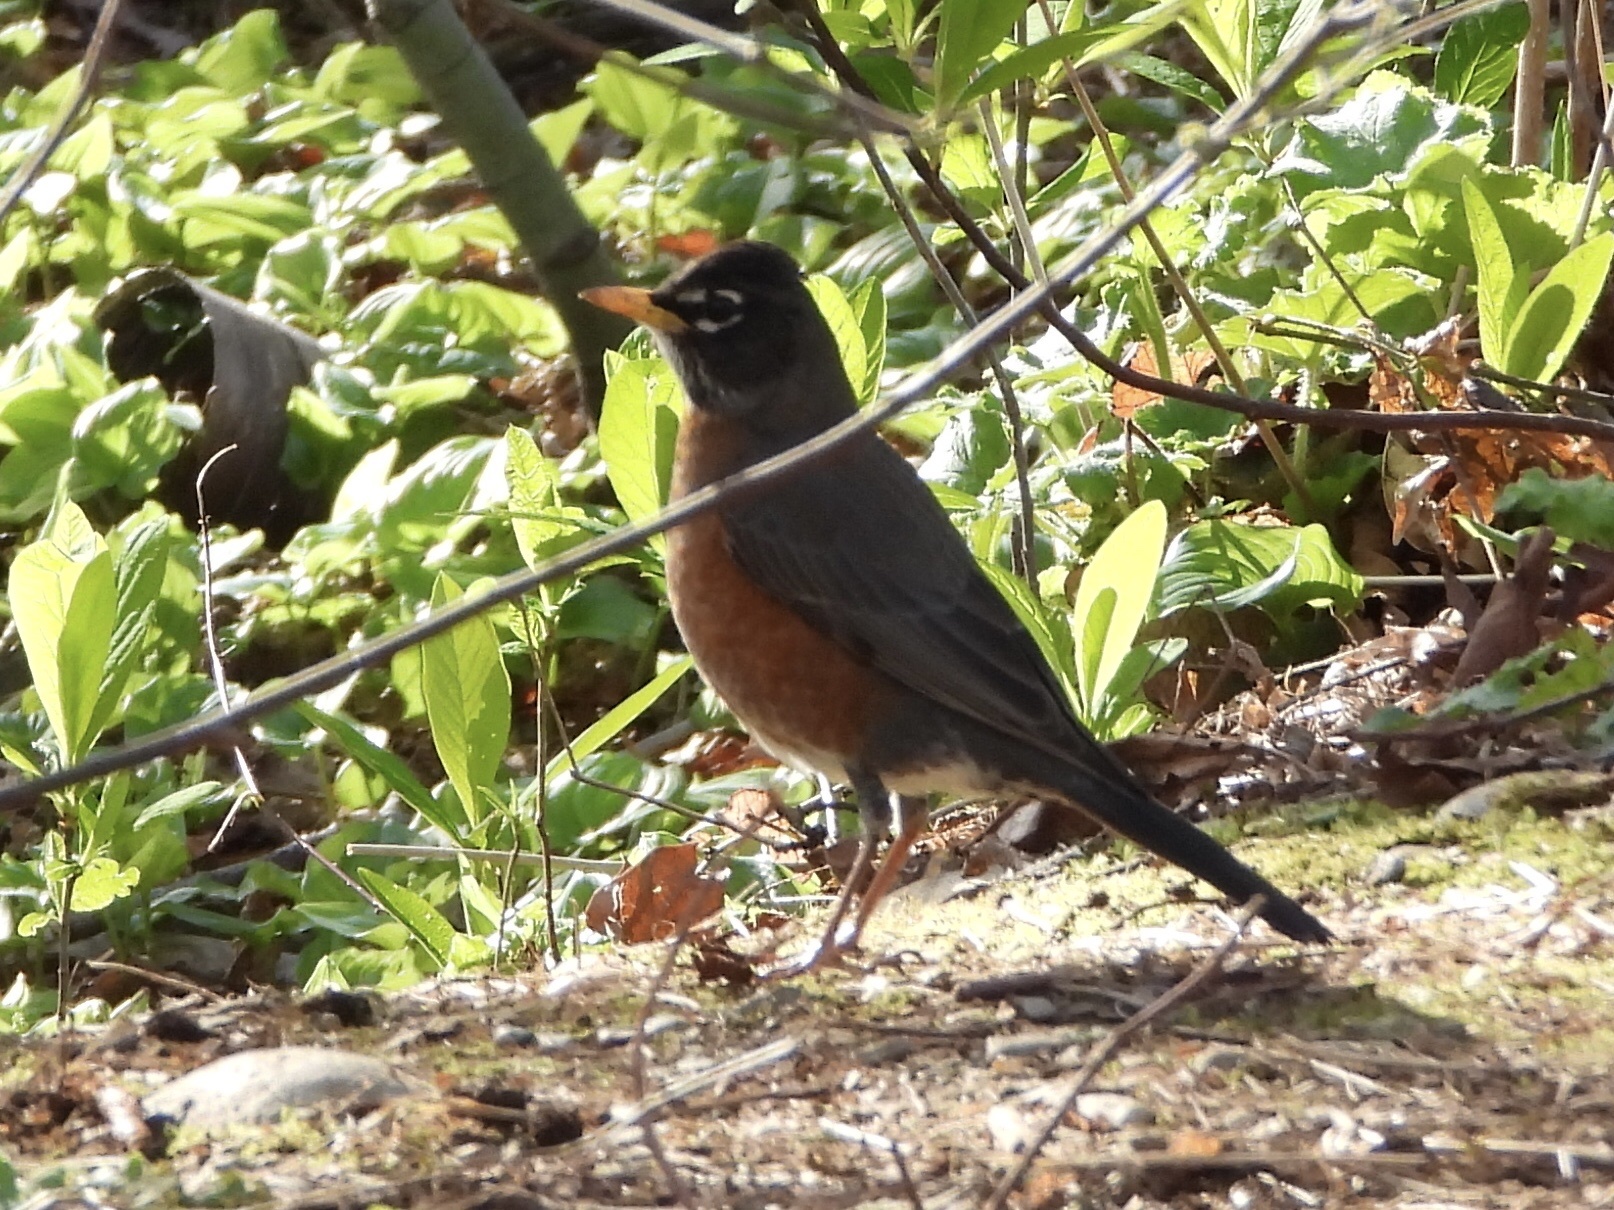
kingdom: Animalia
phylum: Chordata
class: Aves
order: Passeriformes
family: Turdidae
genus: Turdus
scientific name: Turdus migratorius
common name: American robin
